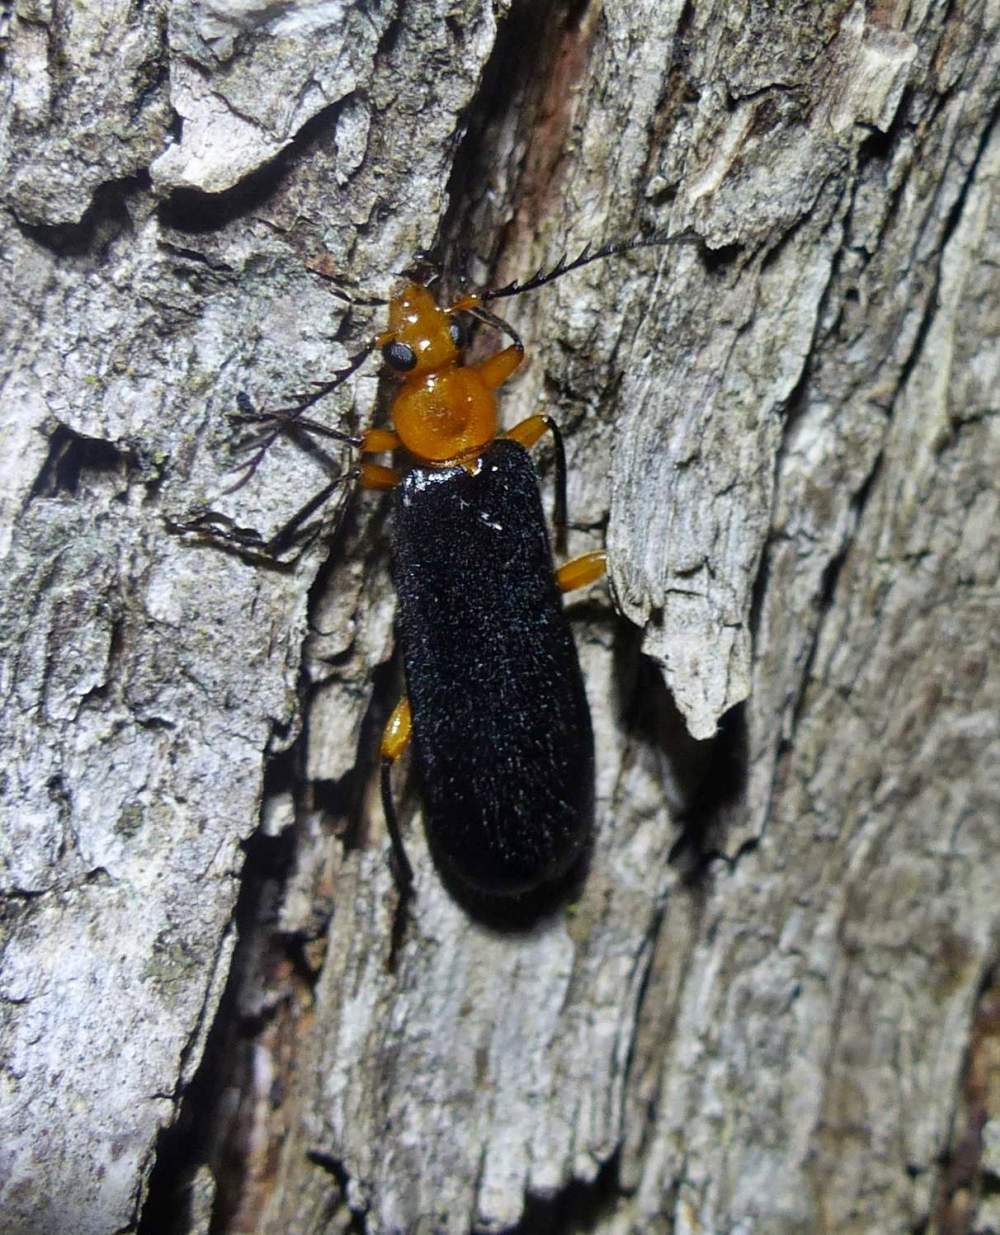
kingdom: Animalia
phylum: Arthropoda
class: Insecta
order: Coleoptera
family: Pyrochroidae
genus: Neopyrochroa
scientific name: Neopyrochroa femoralis
